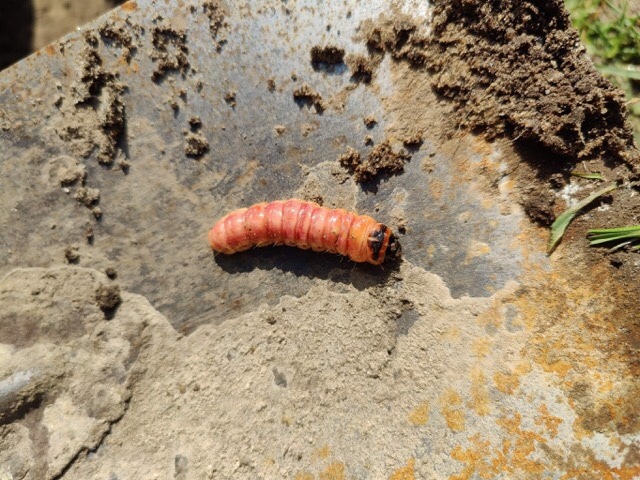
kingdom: Animalia
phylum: Arthropoda
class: Insecta
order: Lepidoptera
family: Cossidae
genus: Cossus
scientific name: Cossus cossus
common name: Goat moth
